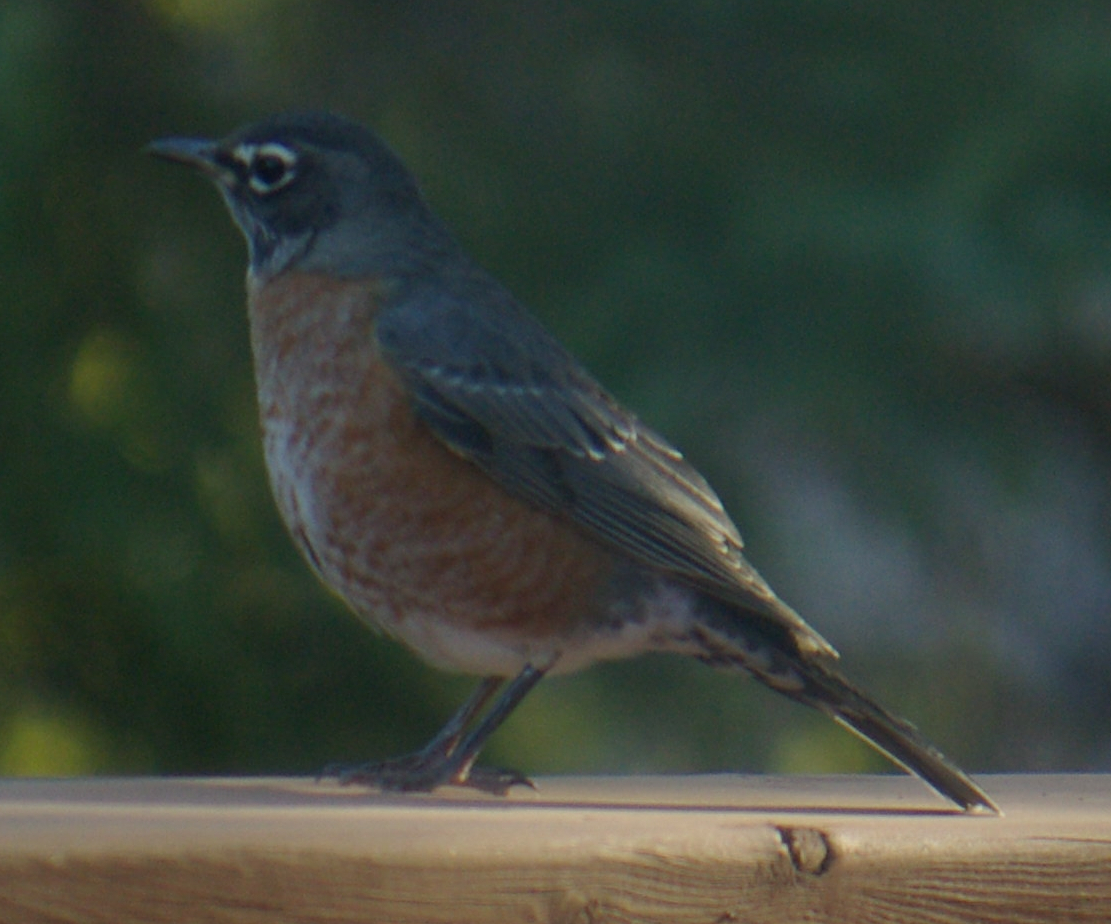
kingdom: Animalia
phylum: Chordata
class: Aves
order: Passeriformes
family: Turdidae
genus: Turdus
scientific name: Turdus migratorius
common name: American robin
